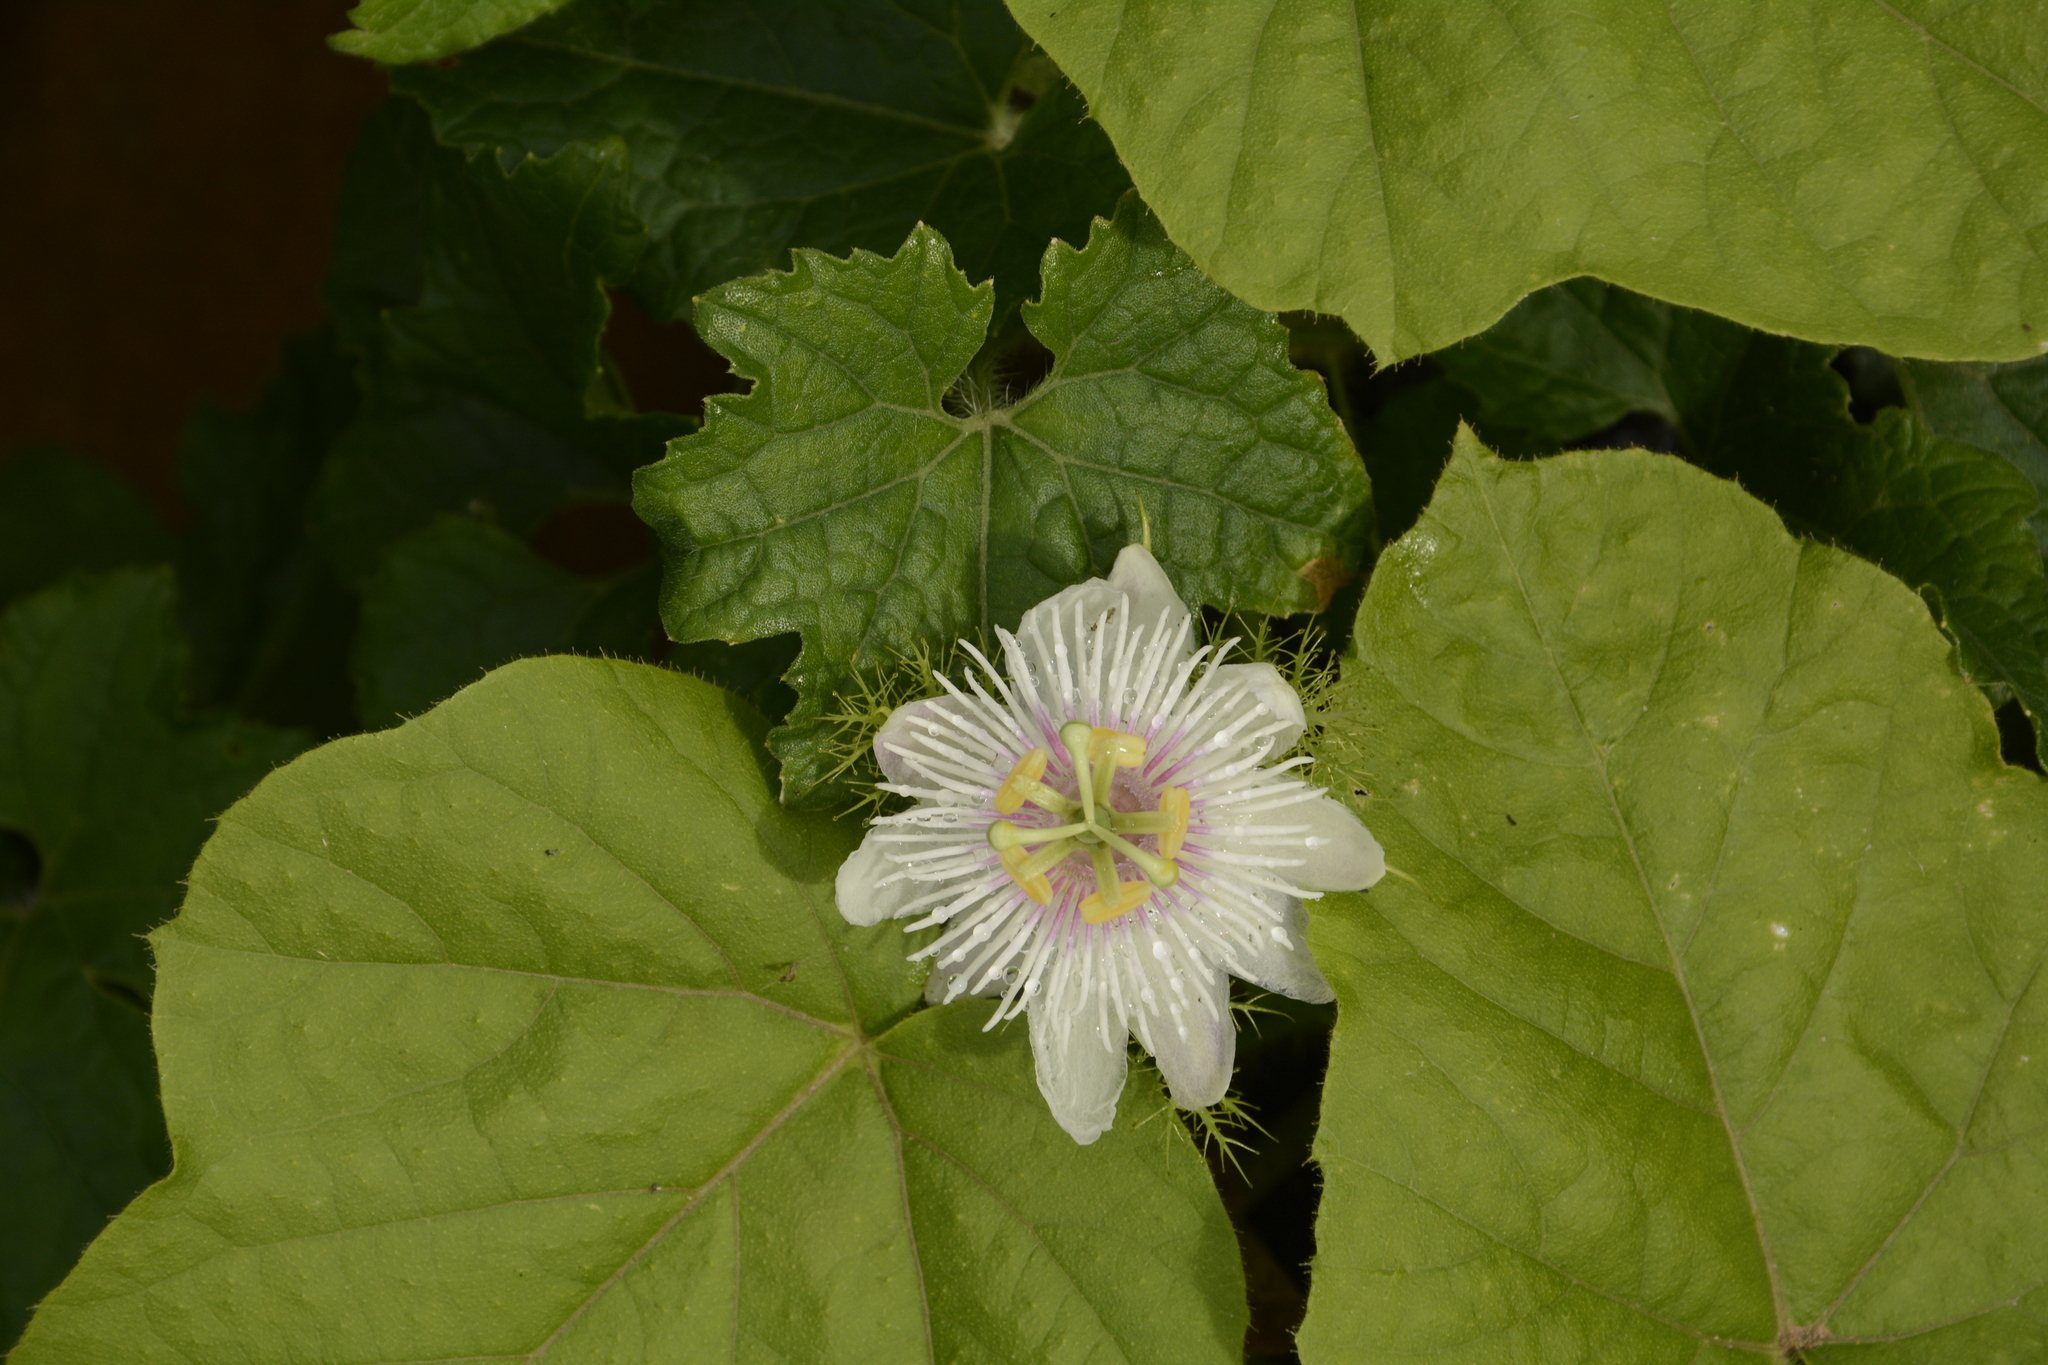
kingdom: Plantae
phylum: Tracheophyta
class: Magnoliopsida
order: Malpighiales
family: Passifloraceae
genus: Passiflora
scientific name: Passiflora foetida
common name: Fetid passionflower
